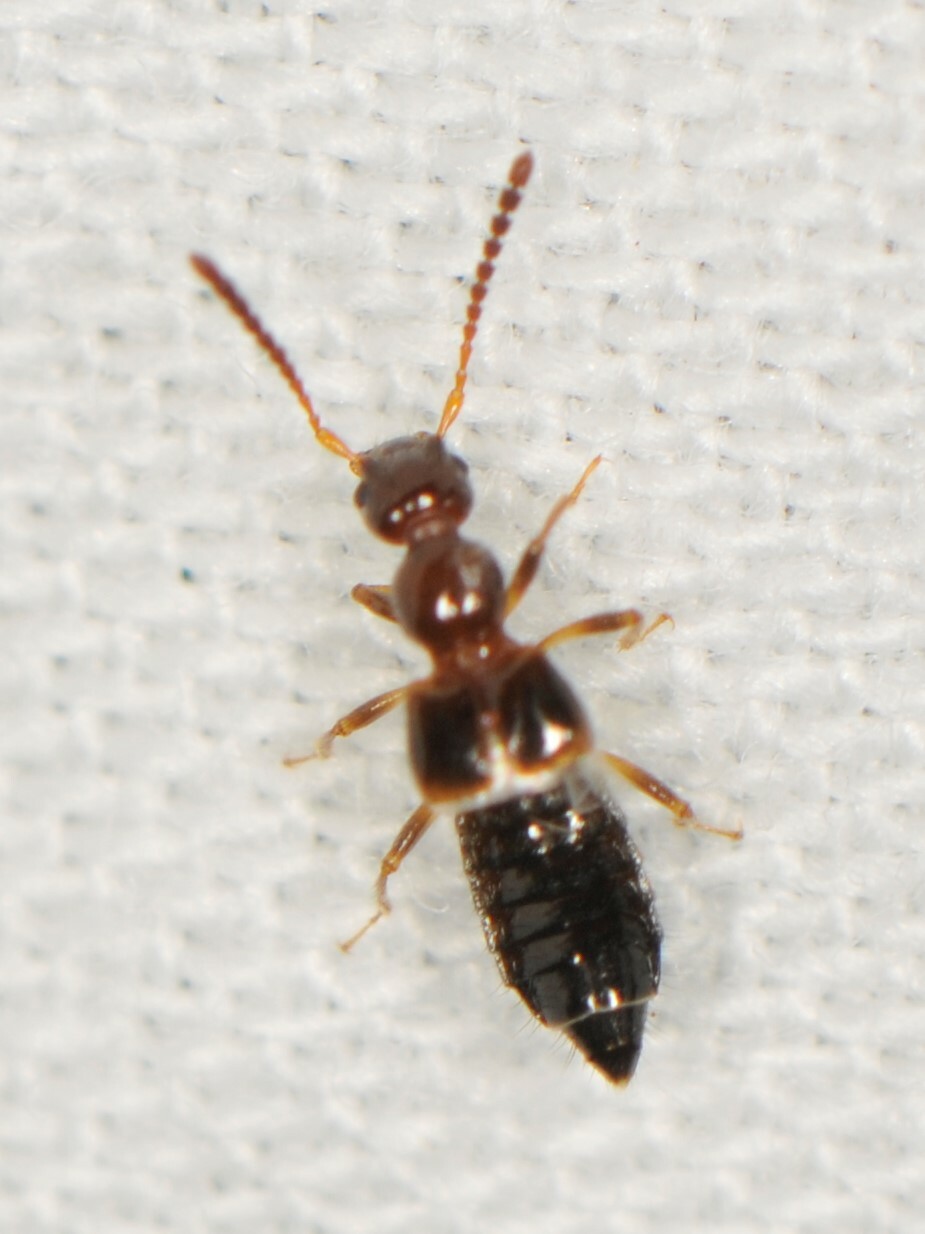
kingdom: Animalia
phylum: Arthropoda
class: Insecta
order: Coleoptera
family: Staphylinidae
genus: Apocellus
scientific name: Apocellus
